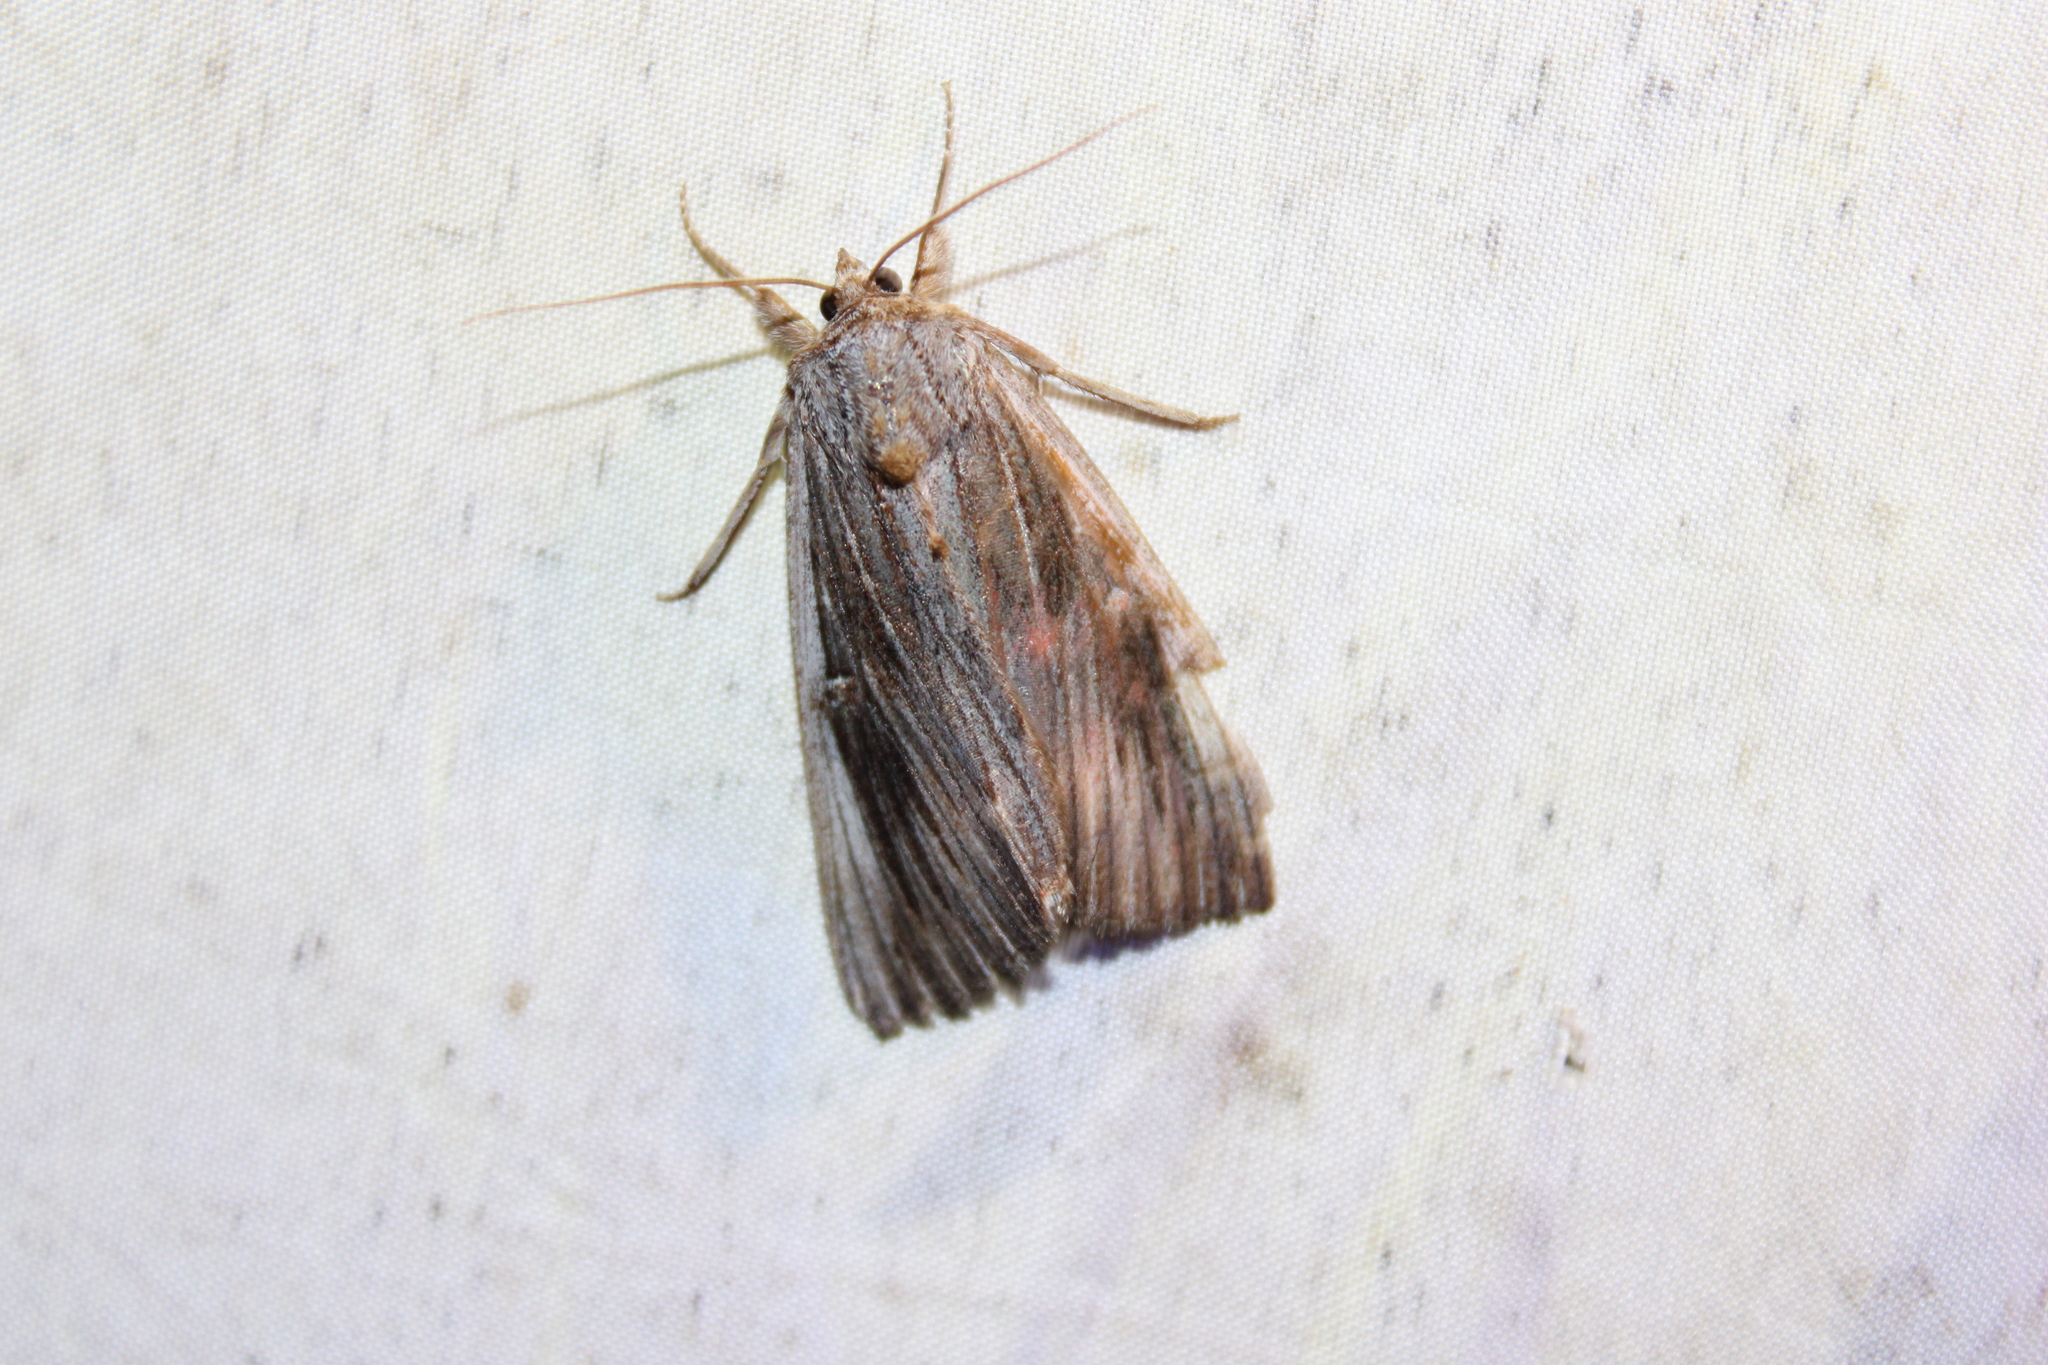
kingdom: Animalia
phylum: Arthropoda
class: Insecta
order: Lepidoptera
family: Erebidae
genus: Catocala
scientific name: Catocala herodias
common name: Pine barrens underwing
